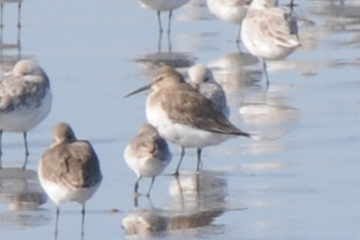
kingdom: Animalia
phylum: Chordata
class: Aves
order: Charadriiformes
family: Scolopacidae
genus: Calidris
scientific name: Calidris alpina
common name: Dunlin
